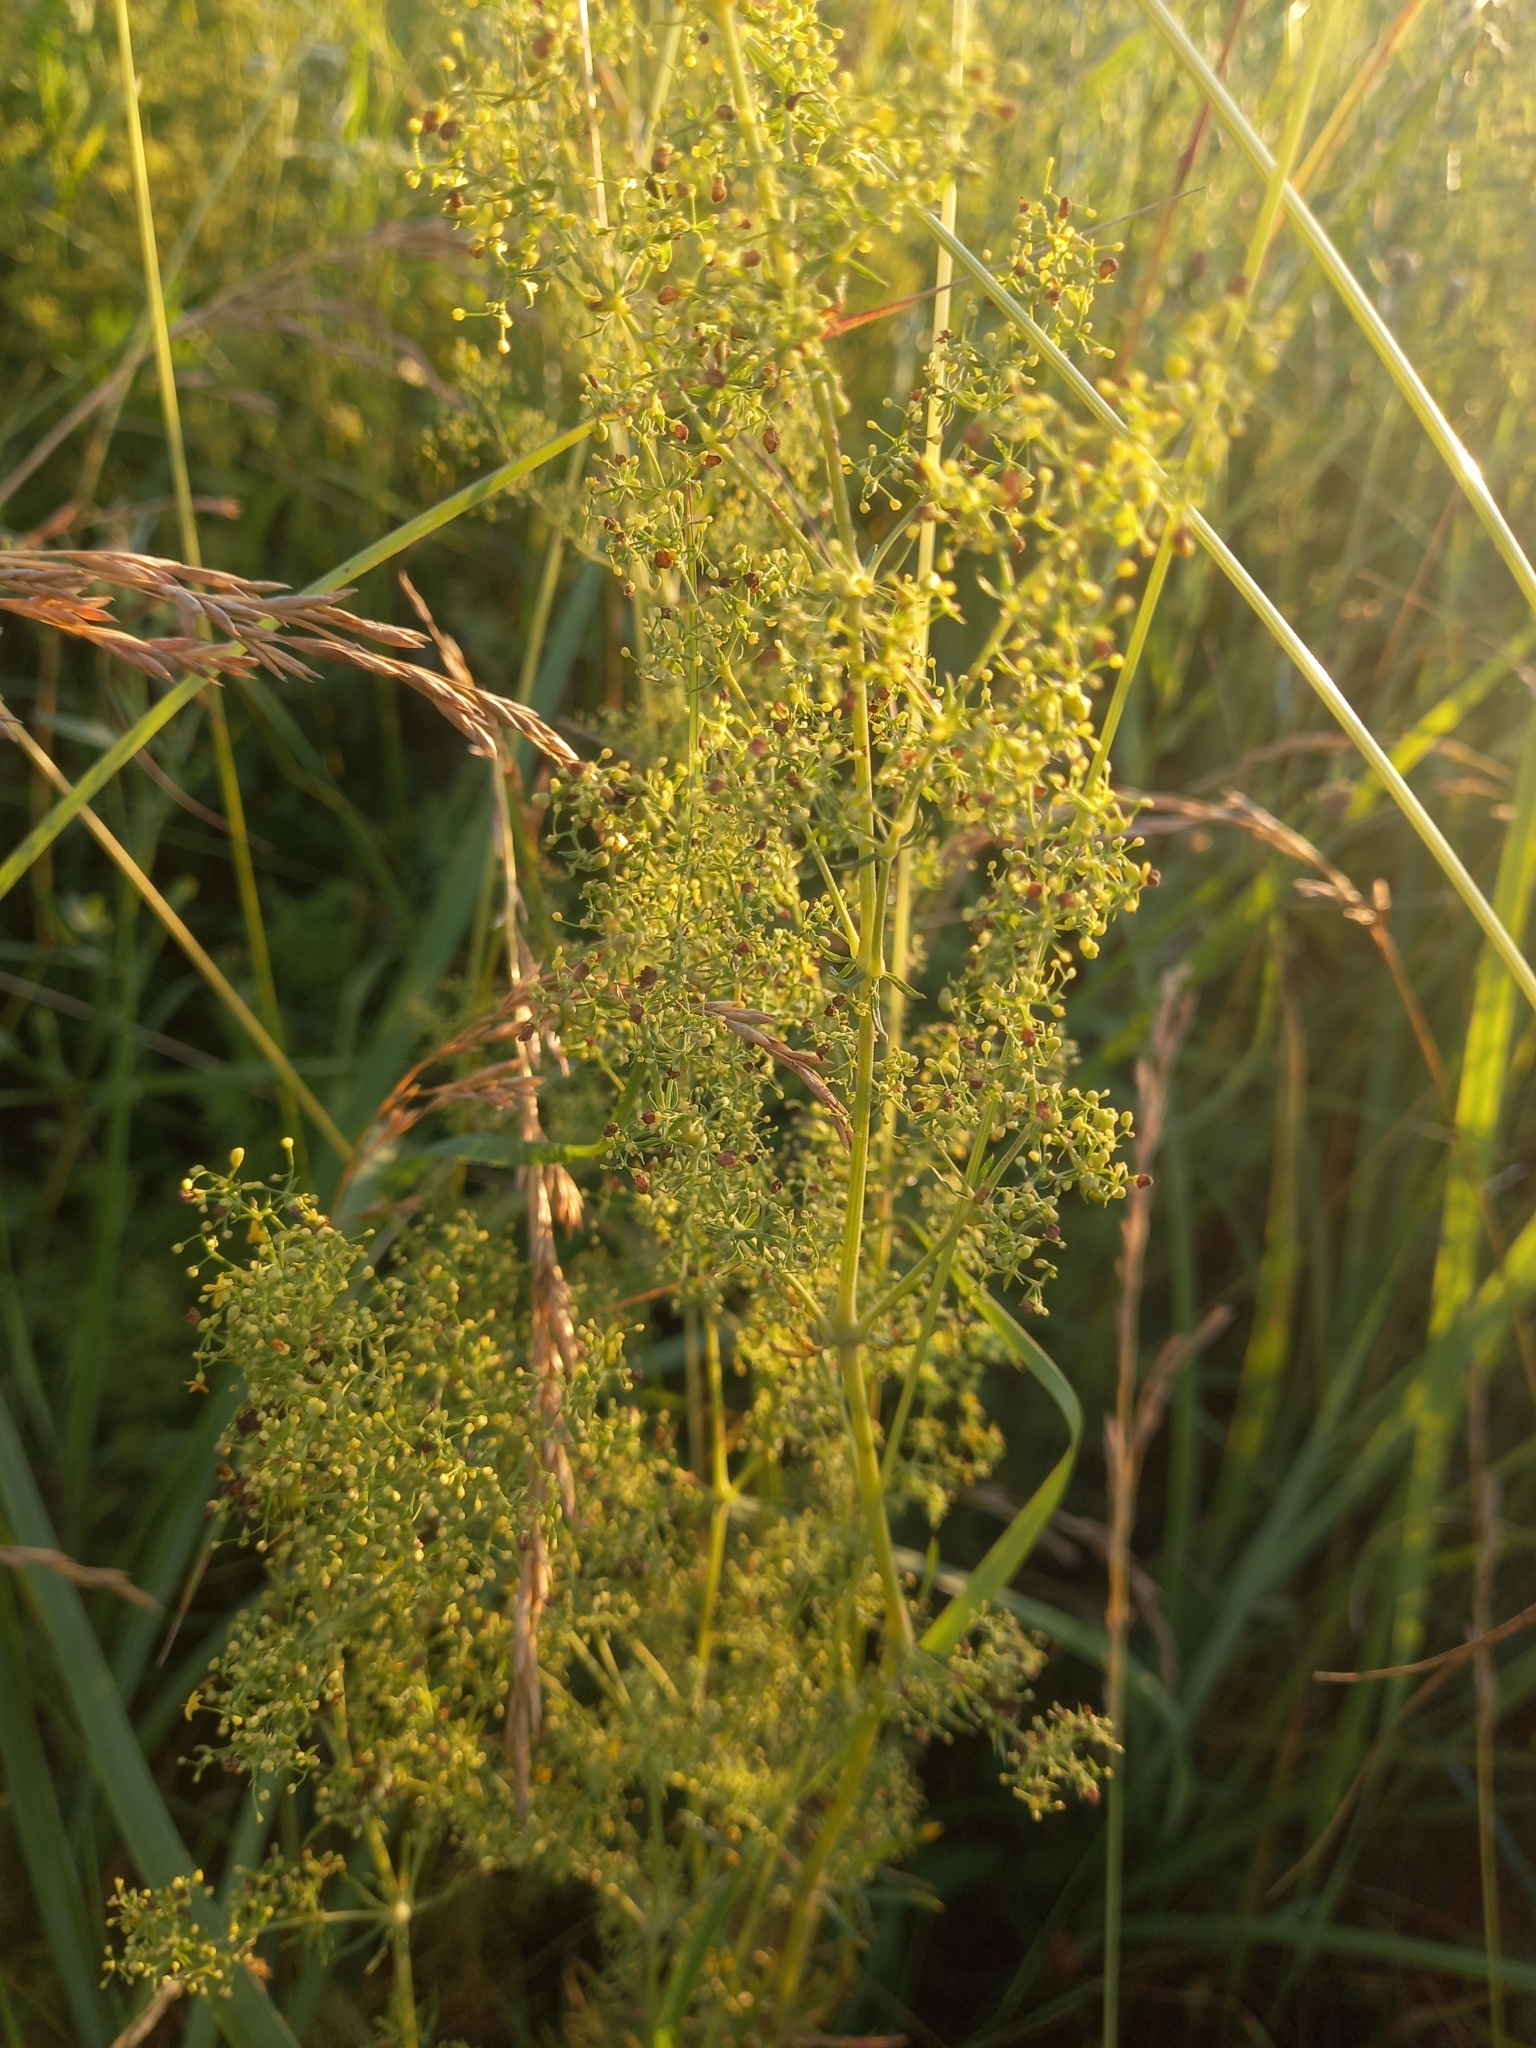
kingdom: Plantae
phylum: Tracheophyta
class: Magnoliopsida
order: Gentianales
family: Rubiaceae
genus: Galium
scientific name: Galium verum
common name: Lady's bedstraw
